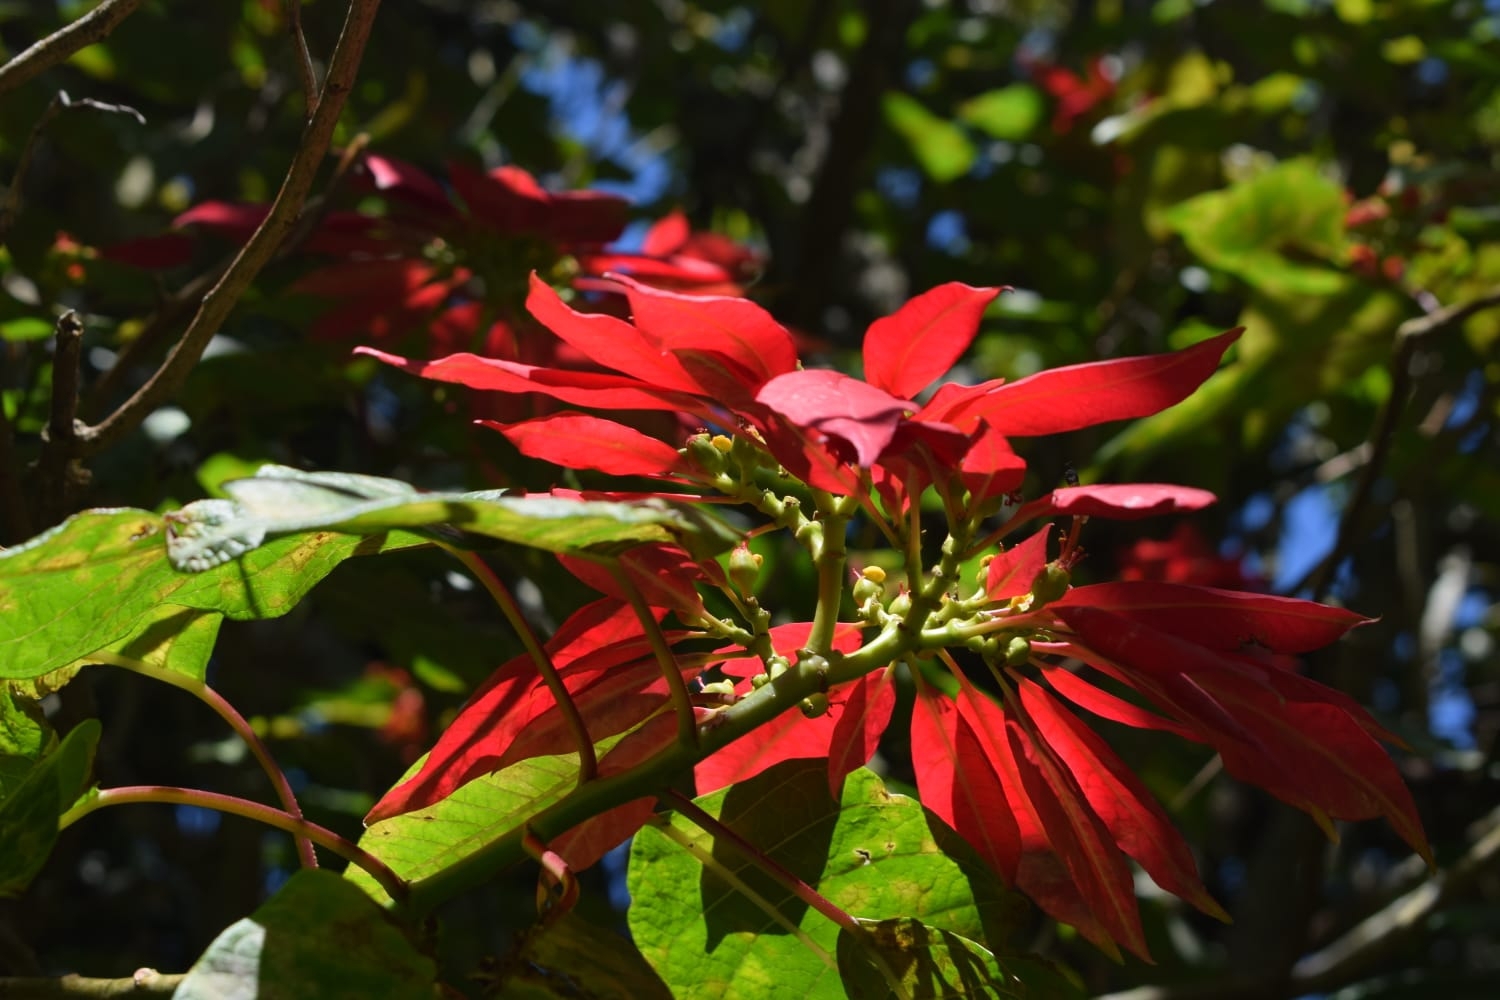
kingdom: Plantae
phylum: Tracheophyta
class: Magnoliopsida
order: Malpighiales
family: Euphorbiaceae
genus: Euphorbia
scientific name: Euphorbia pulcherrima
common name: Christmas-flower
